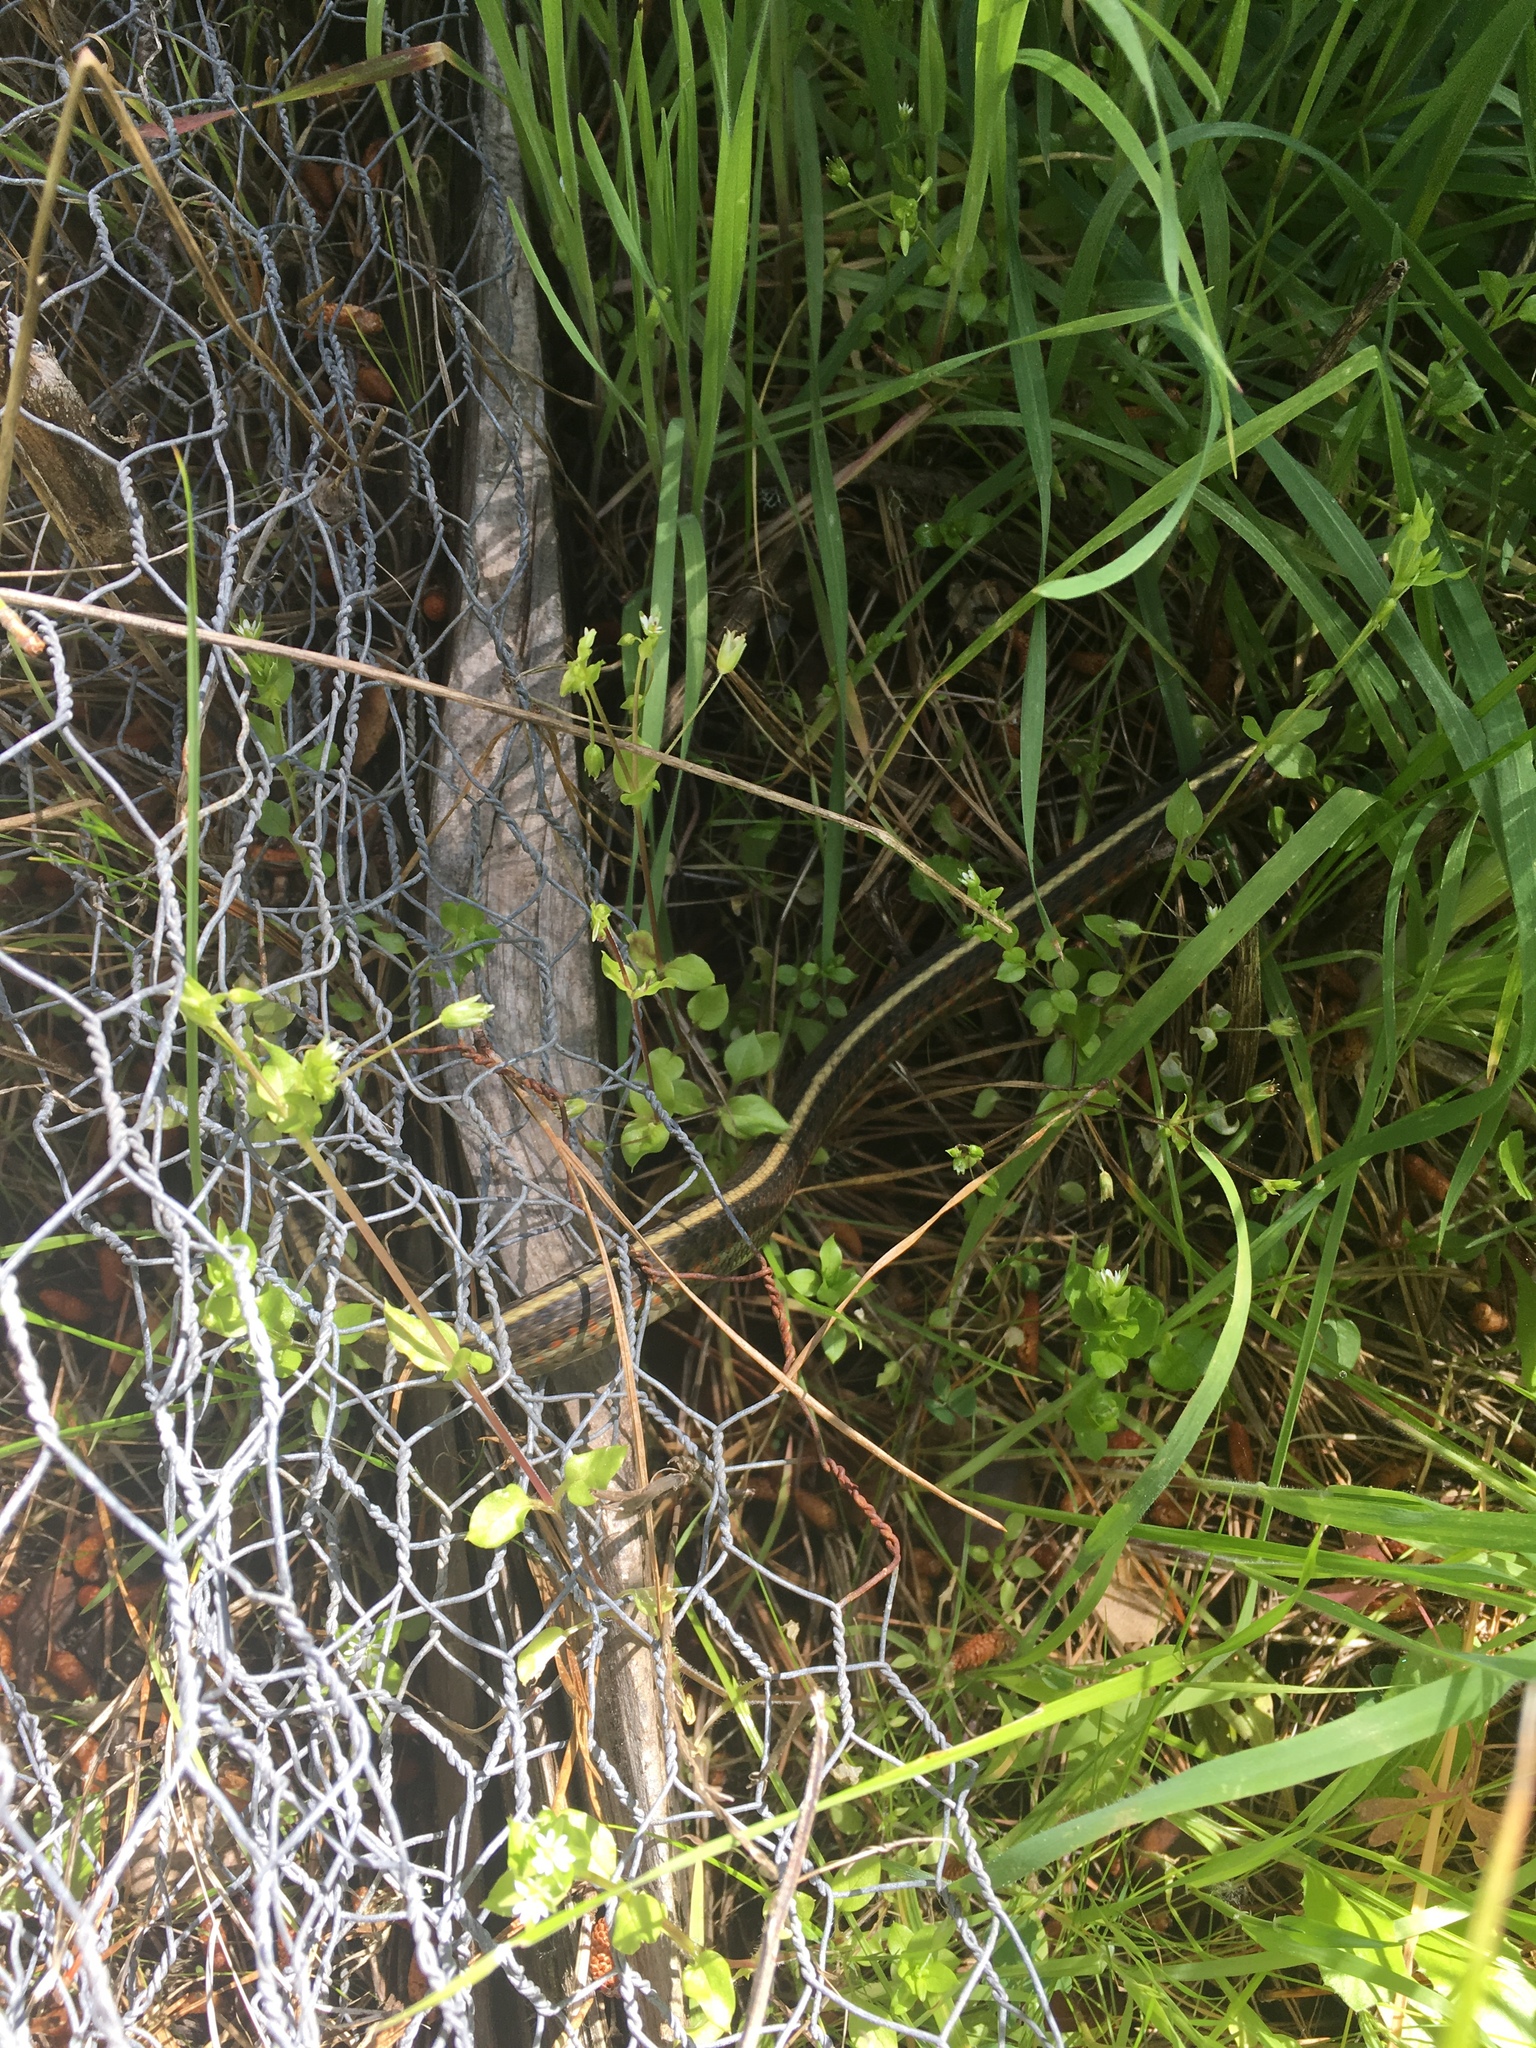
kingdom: Animalia
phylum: Chordata
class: Squamata
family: Colubridae
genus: Thamnophis
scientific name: Thamnophis elegans
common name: Western terrestrial garter snake
